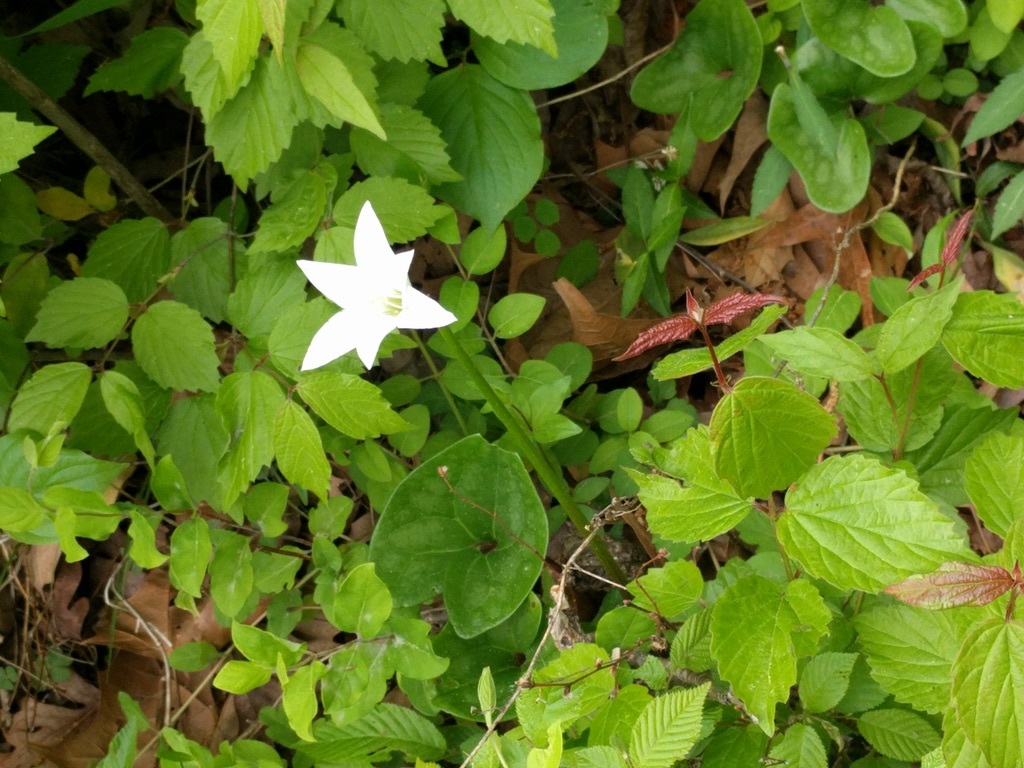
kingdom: Plantae
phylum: Tracheophyta
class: Liliopsida
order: Asparagales
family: Amaryllidaceae
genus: Zephyranthes
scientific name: Zephyranthes atamasco
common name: Atamasco lily
